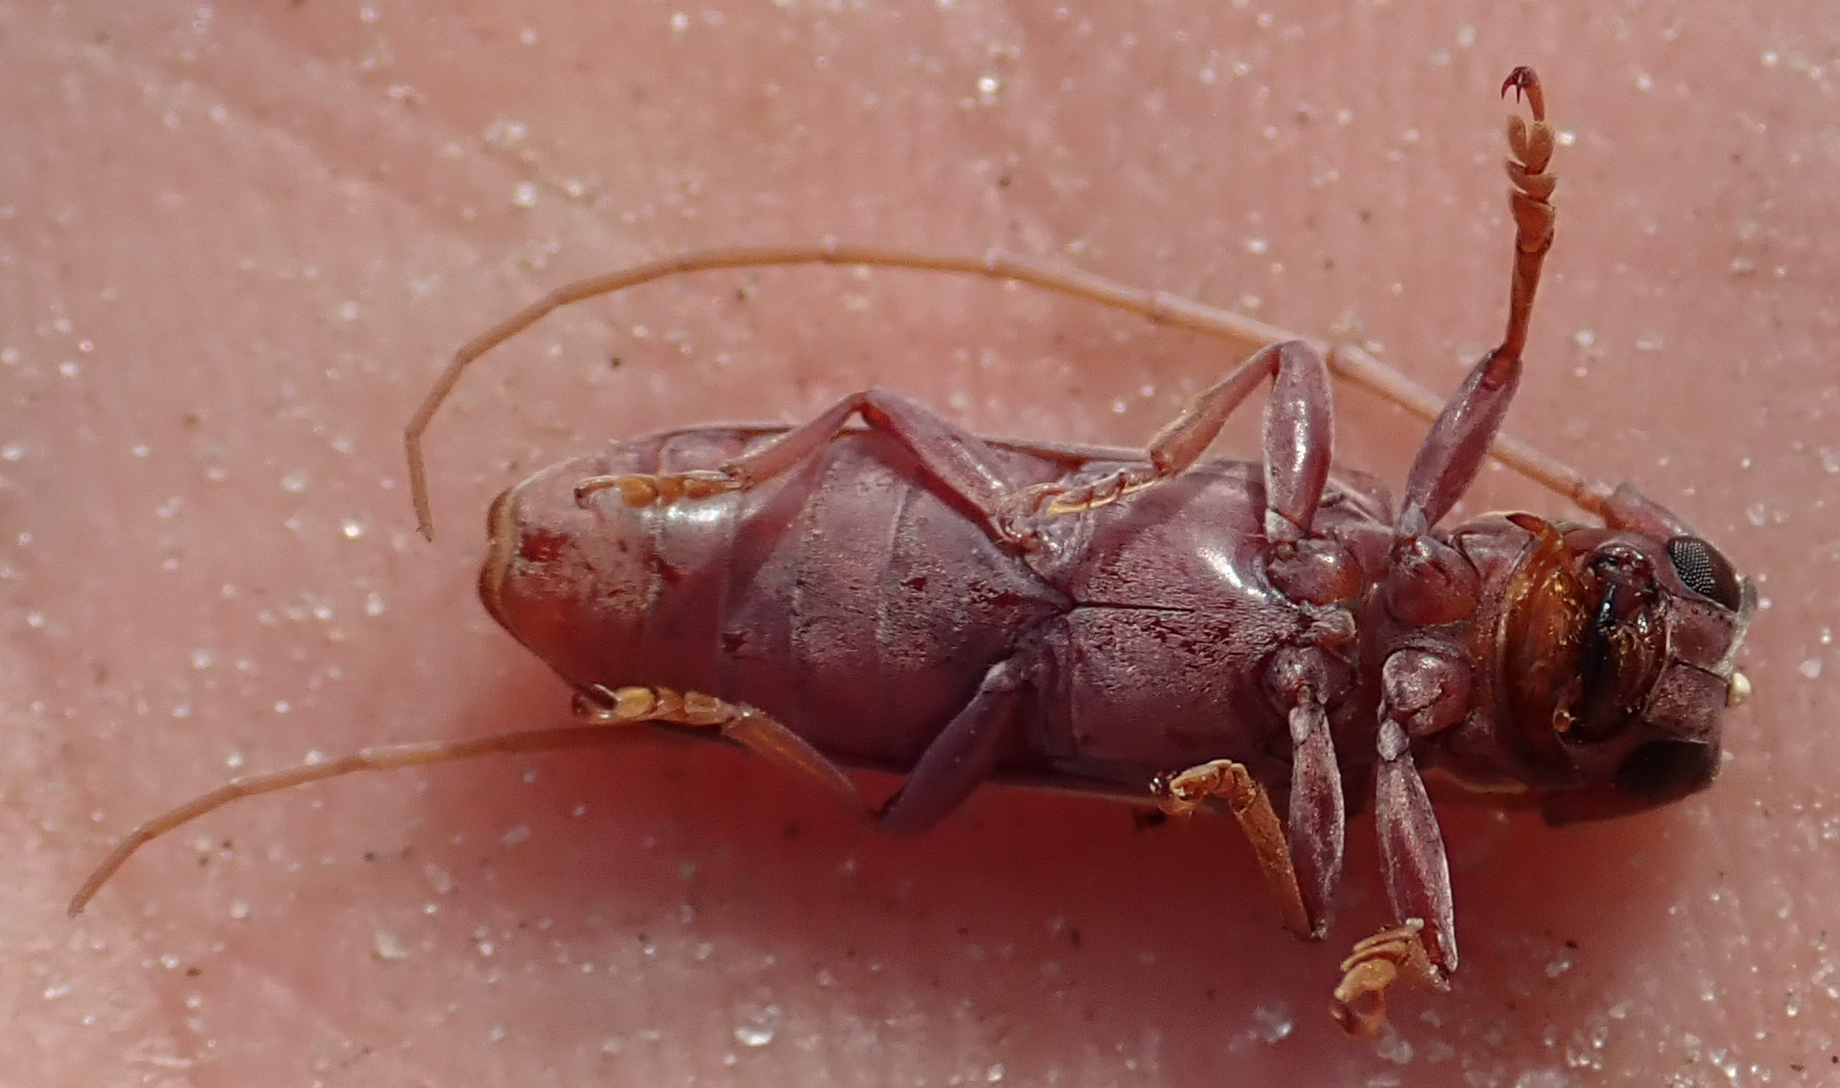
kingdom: Animalia
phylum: Arthropoda
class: Insecta
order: Coleoptera
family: Cerambycidae
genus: Prosopocera
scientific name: Prosopocera zimbabwea
